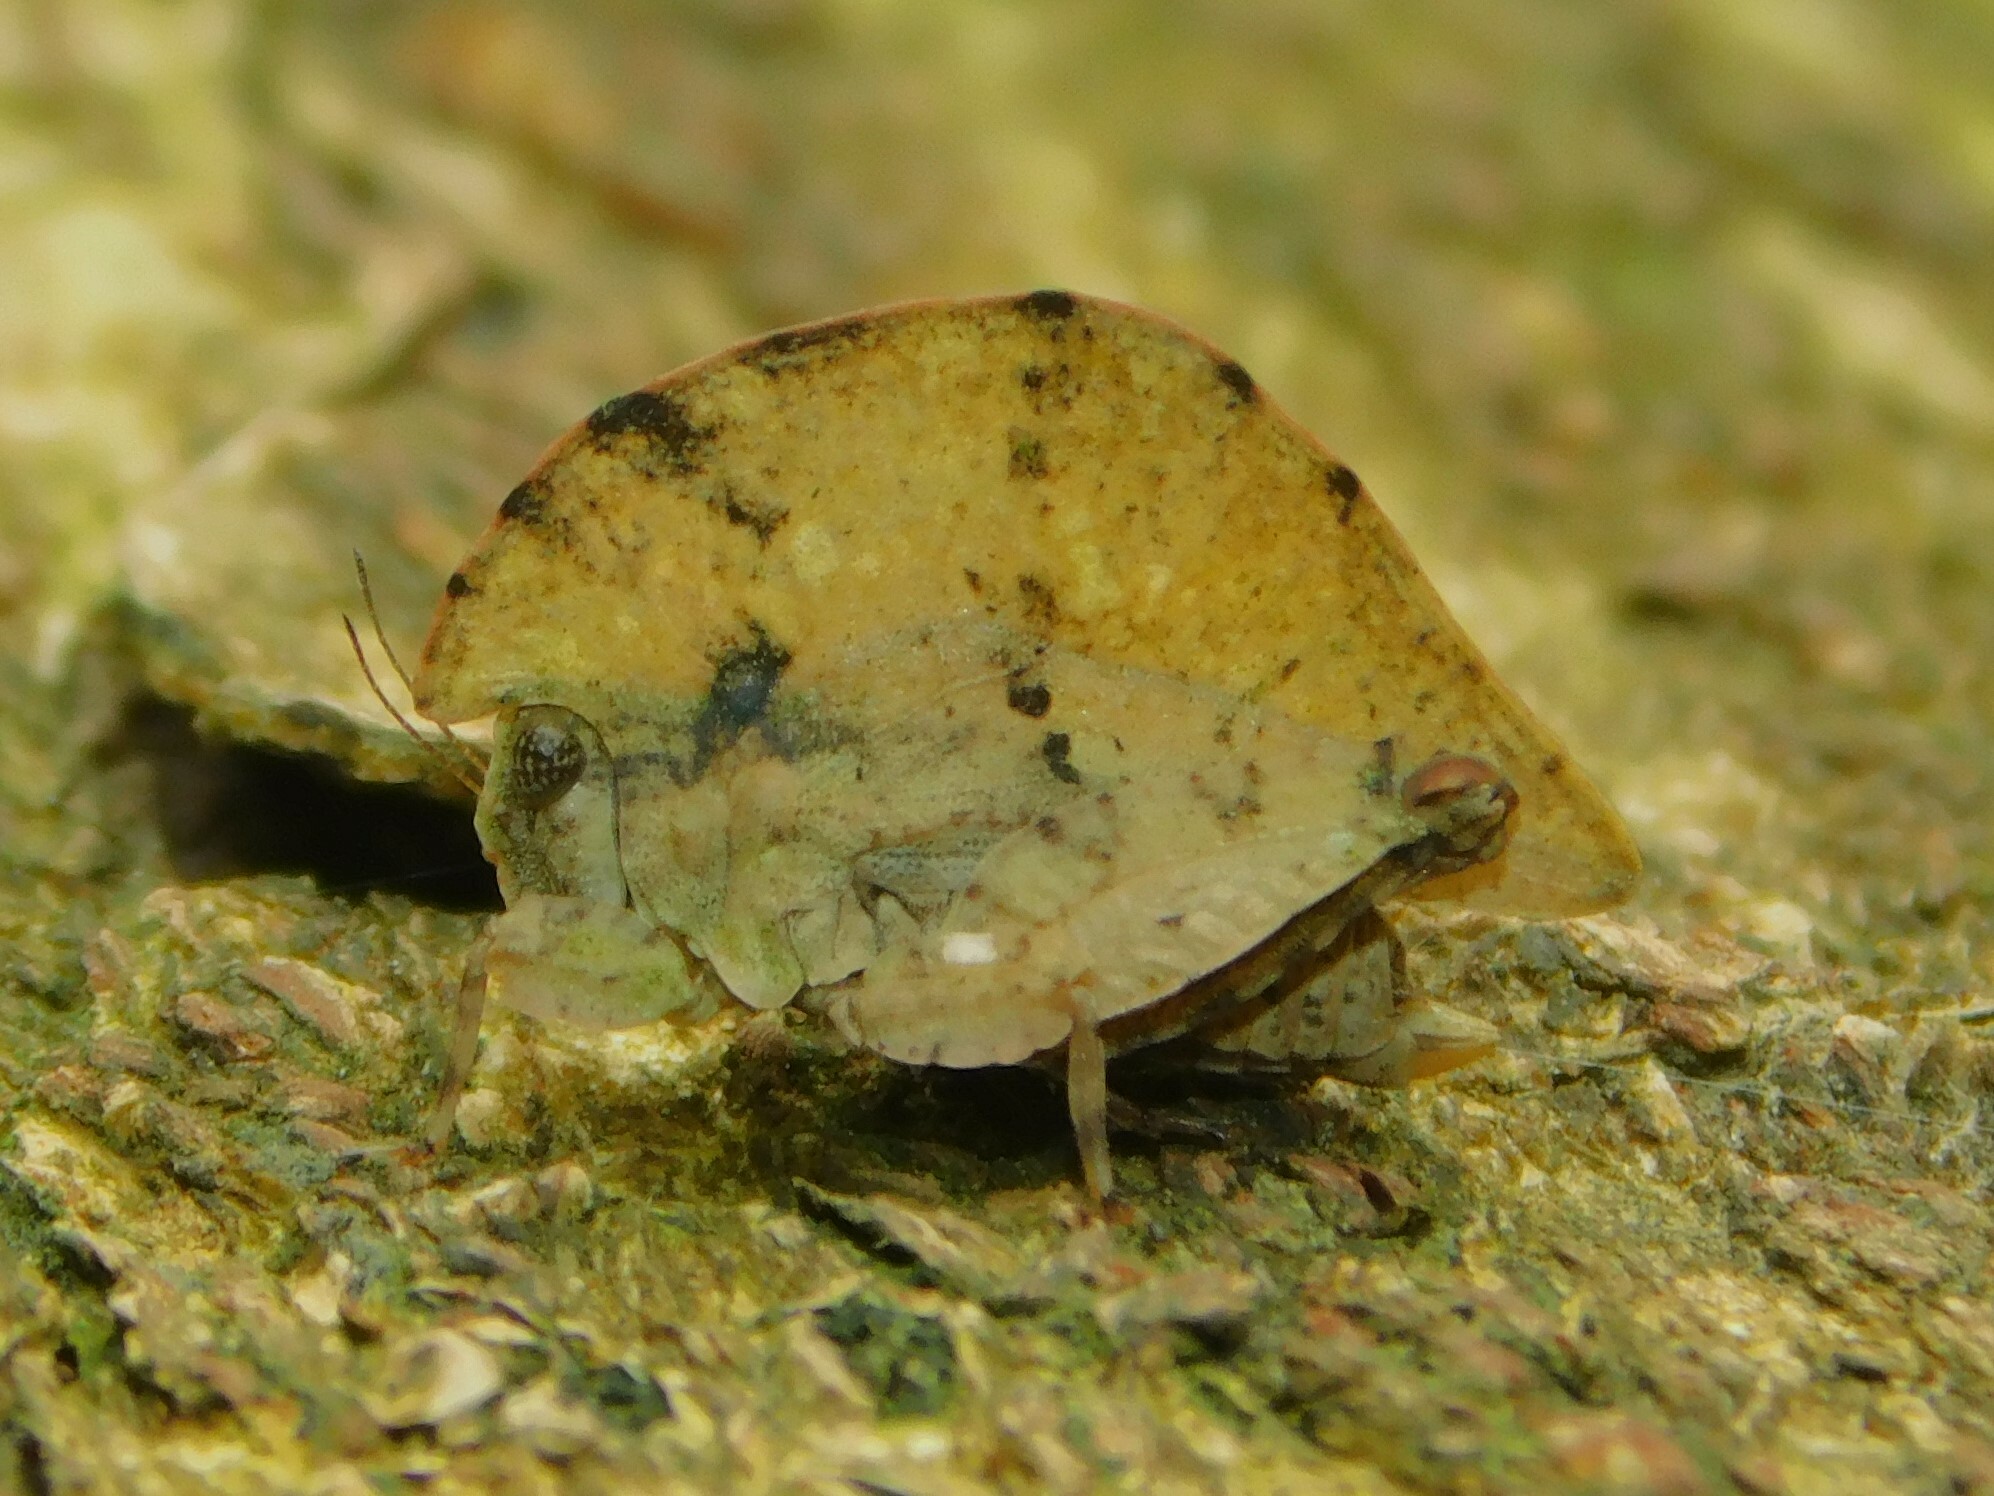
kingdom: Animalia
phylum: Arthropoda
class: Insecta
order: Orthoptera
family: Tetrigidae
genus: Trypophyllum
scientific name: Trypophyllum glabrifrons
